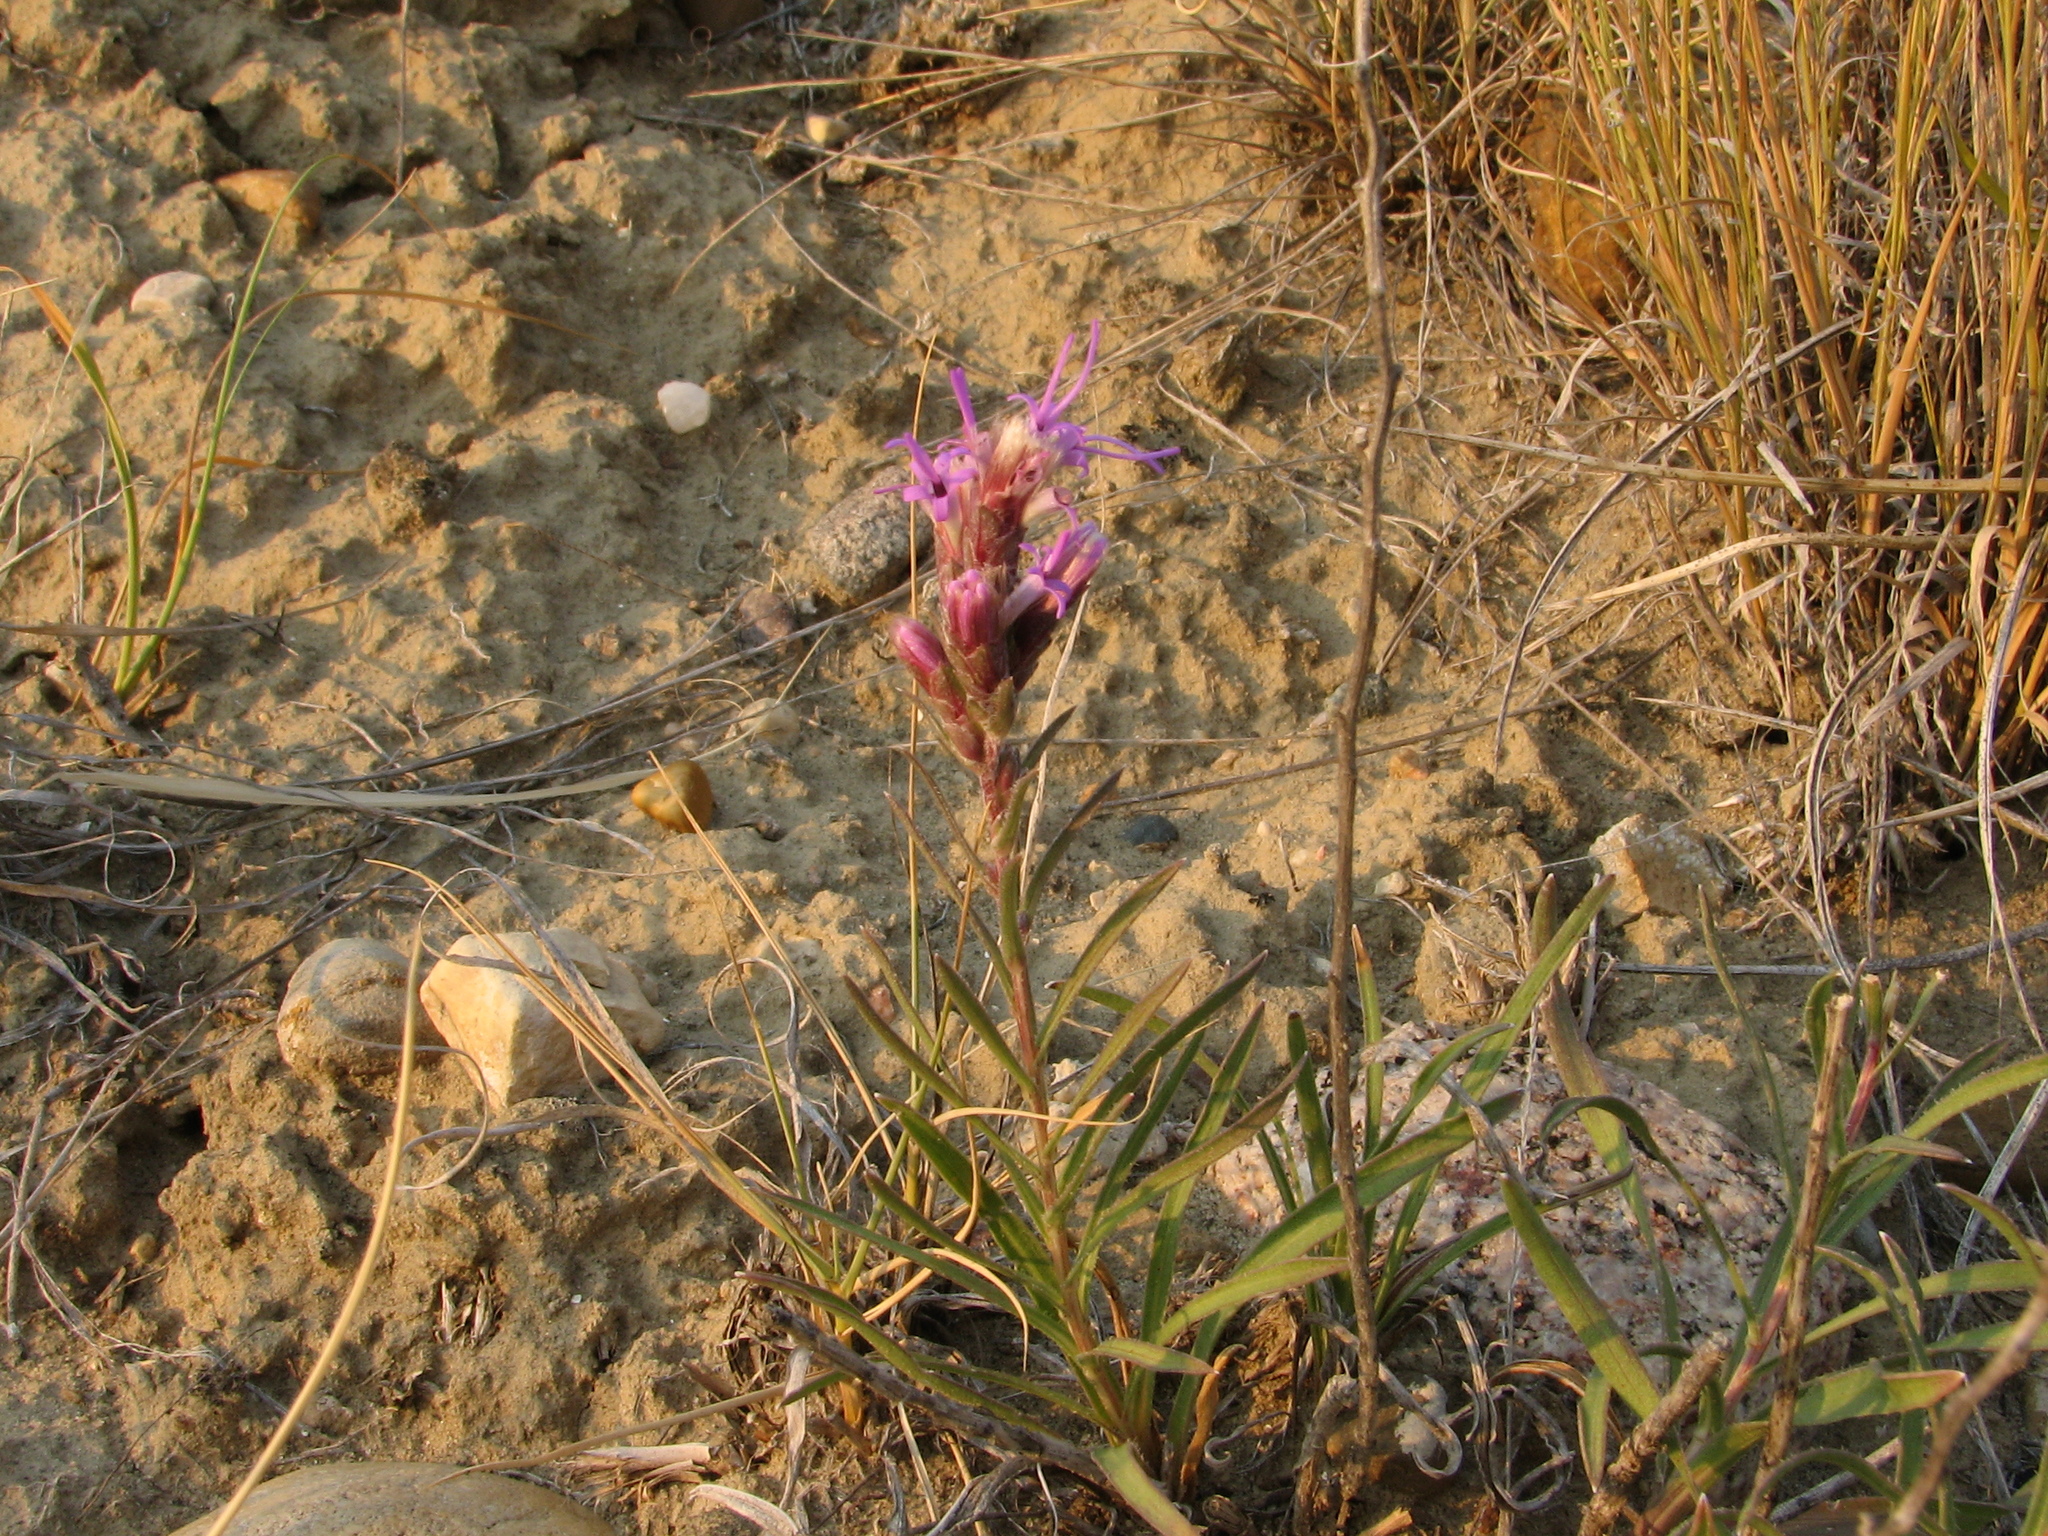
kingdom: Plantae
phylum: Tracheophyta
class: Magnoliopsida
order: Asterales
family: Asteraceae
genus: Liatris
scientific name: Liatris punctata
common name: Dotted gayfeather
